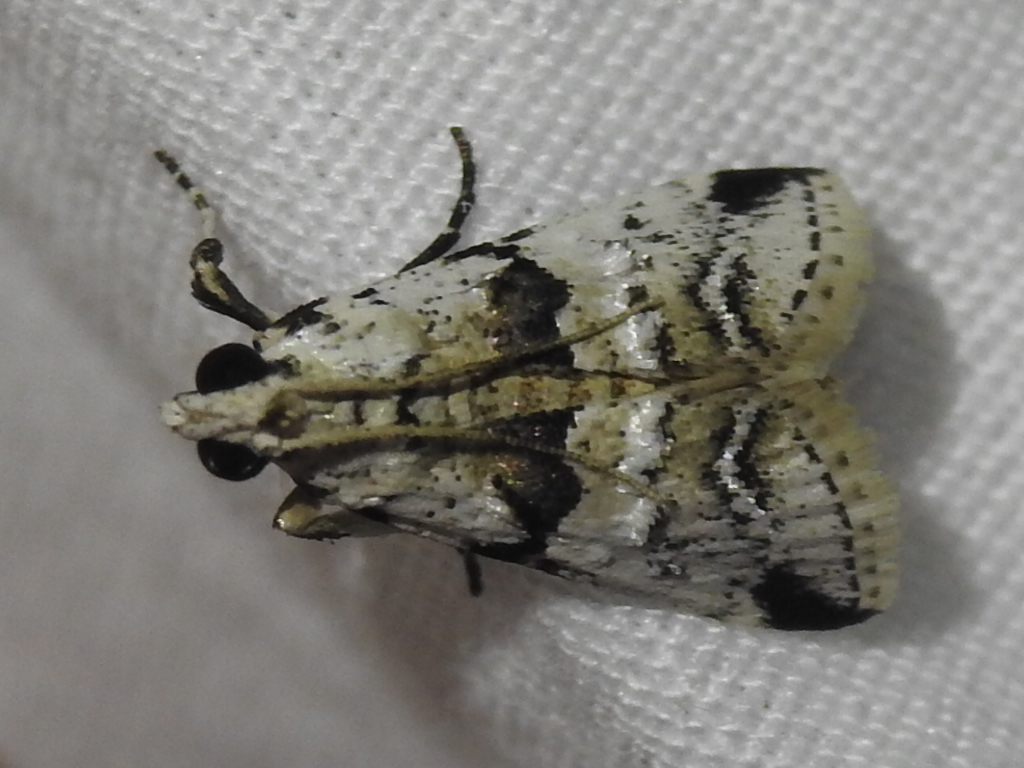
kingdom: Animalia
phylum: Arthropoda
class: Insecta
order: Lepidoptera
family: Pyralidae
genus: Tallula
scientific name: Tallula atrifascialis
